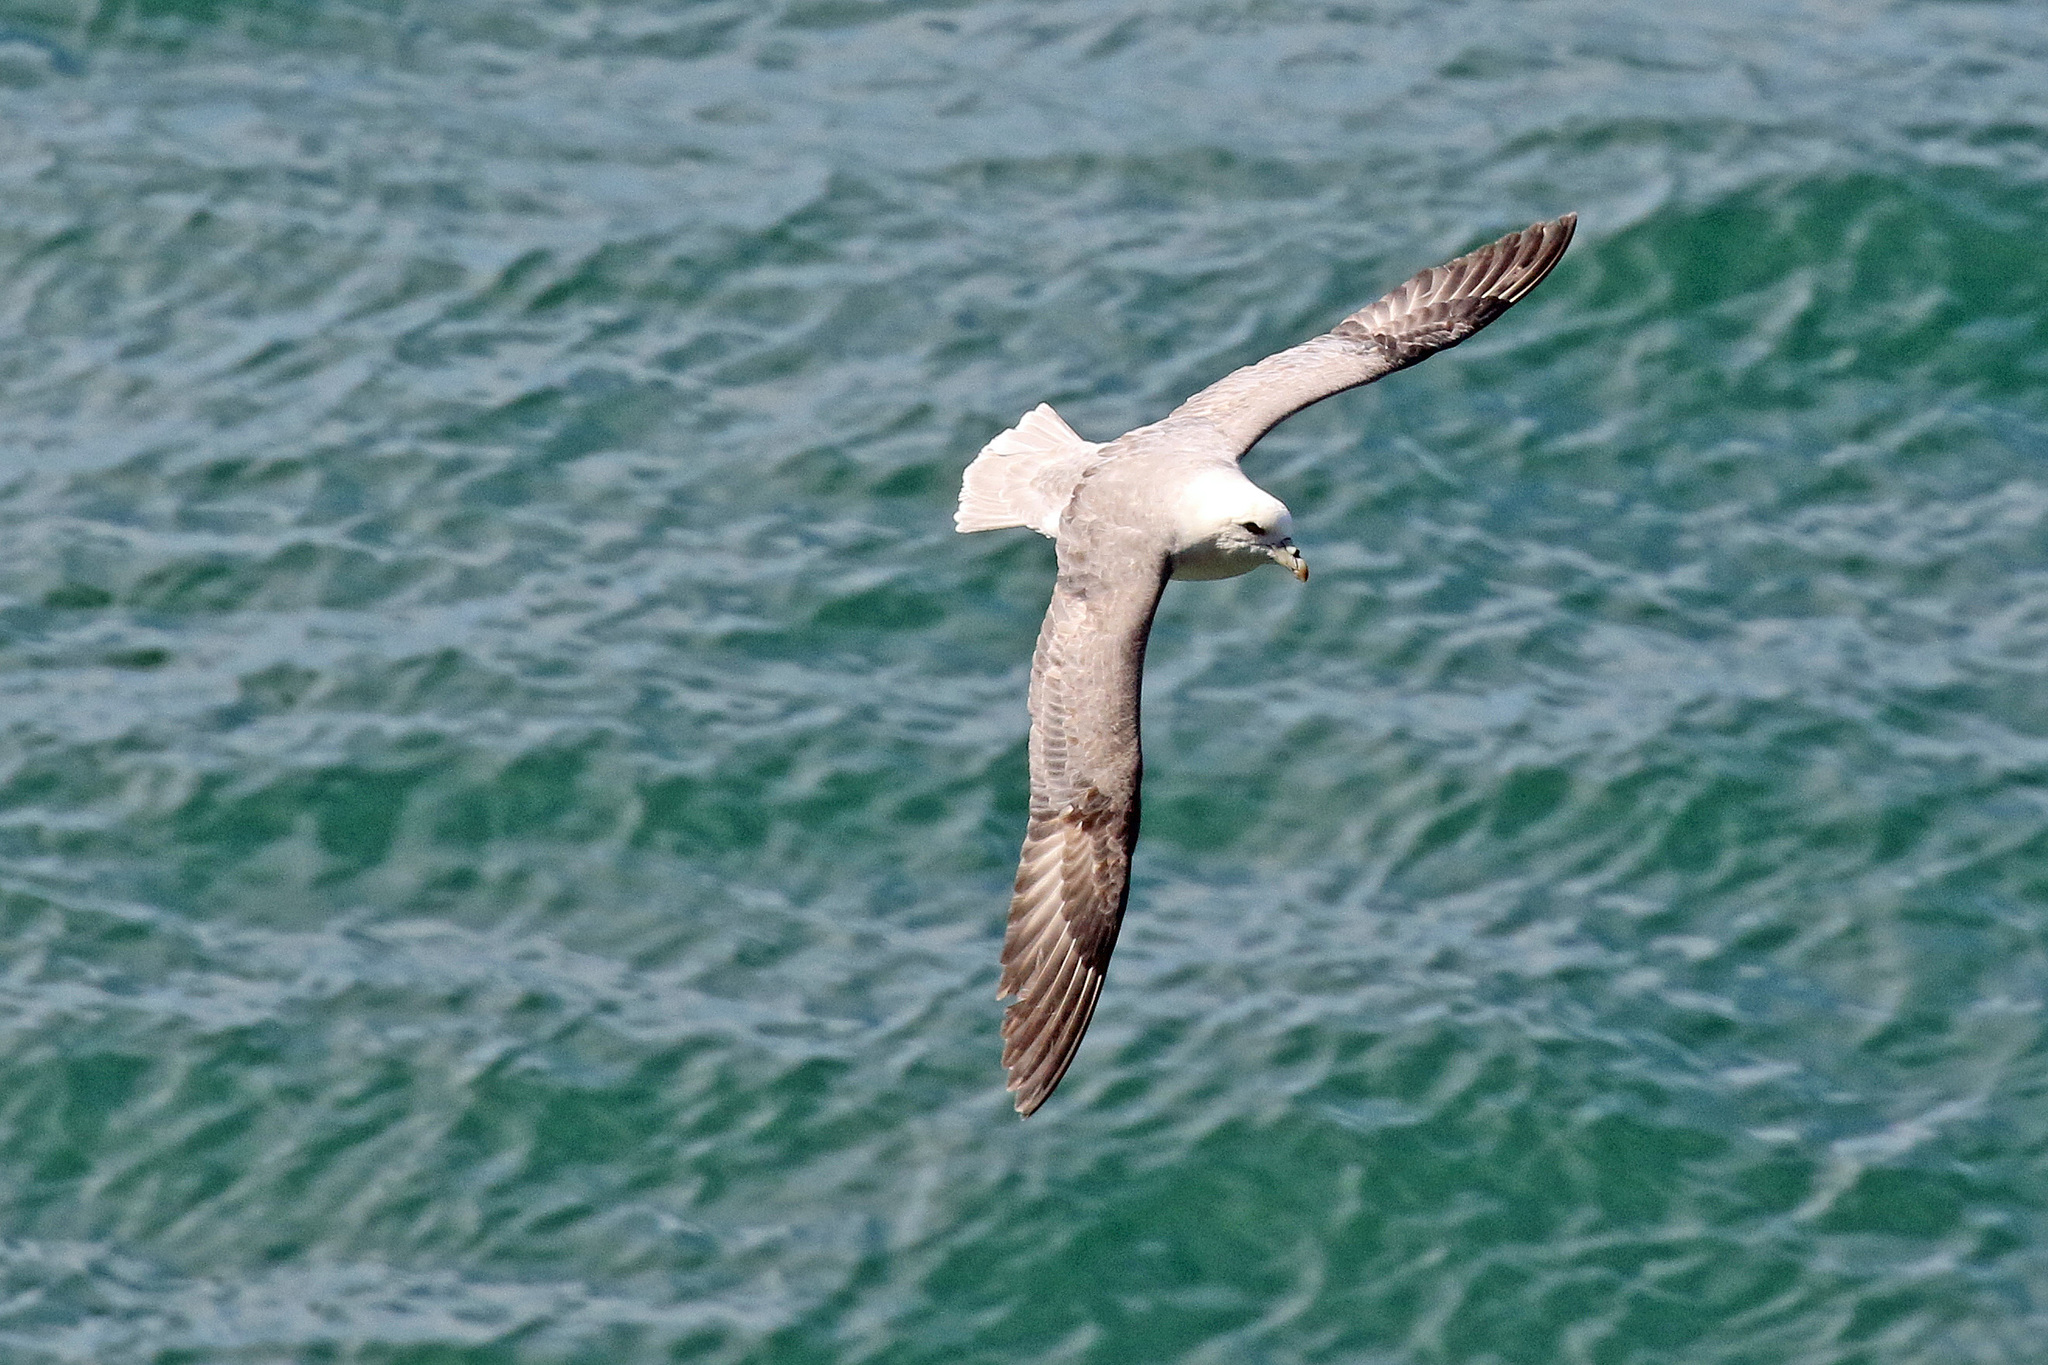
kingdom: Animalia
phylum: Chordata
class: Aves
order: Procellariiformes
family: Procellariidae
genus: Fulmarus
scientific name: Fulmarus glacialis
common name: Northern fulmar
